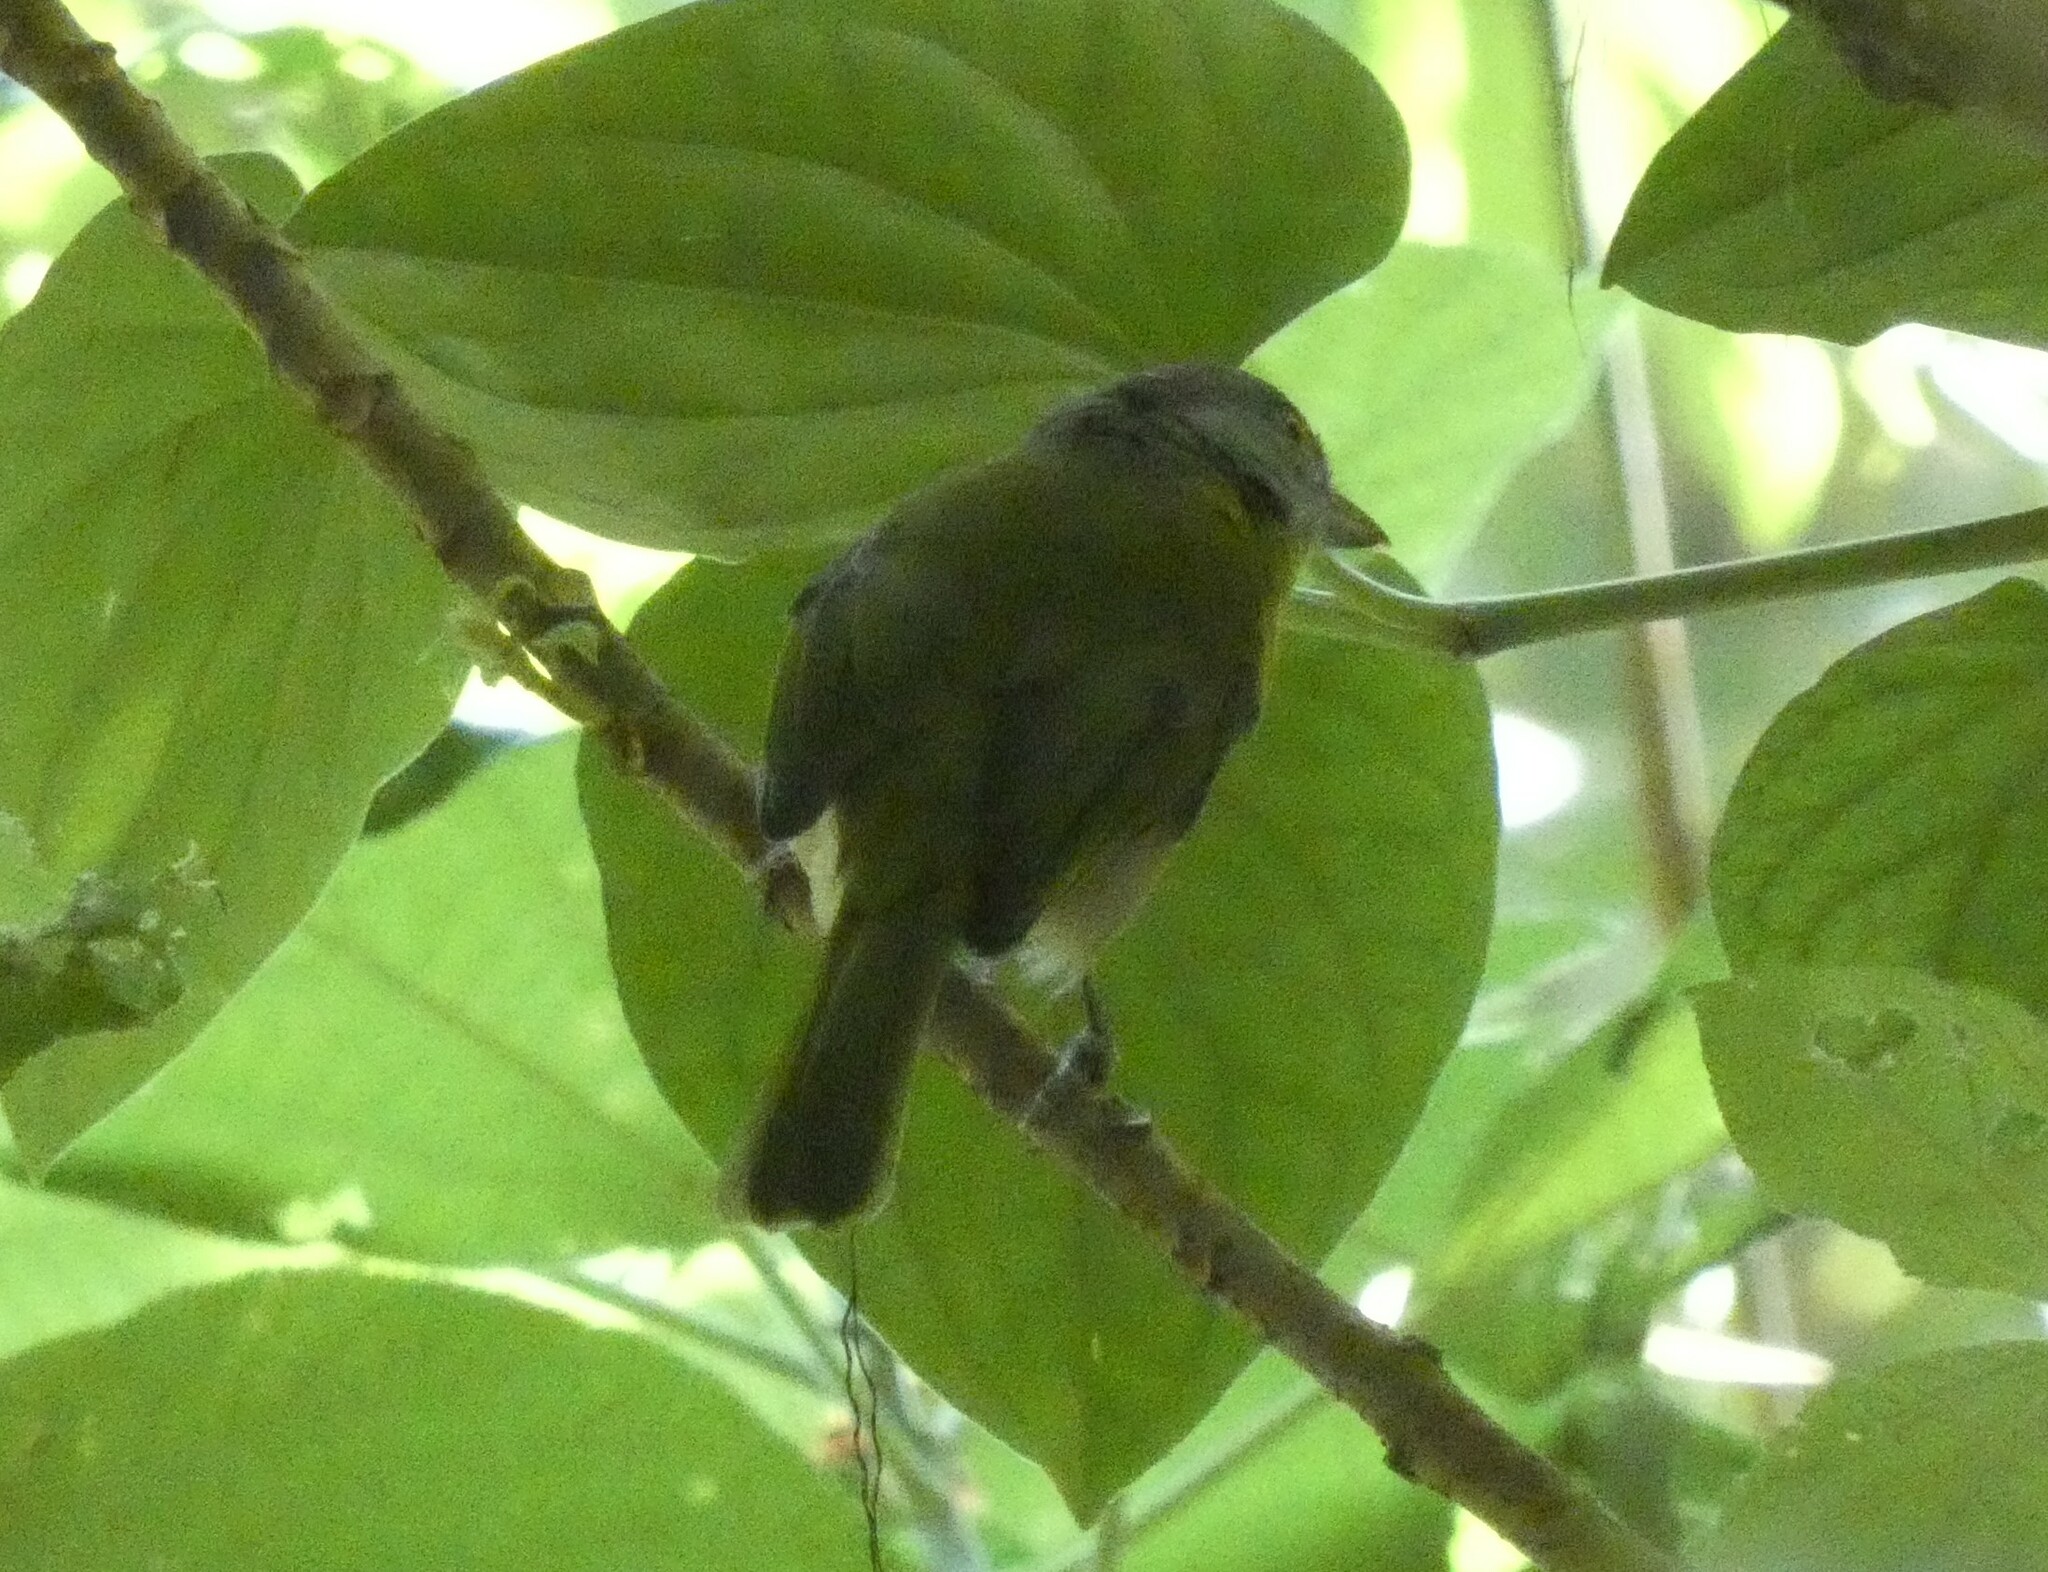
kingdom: Animalia
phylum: Chordata
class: Aves
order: Passeriformes
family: Vireonidae
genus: Cyclarhis
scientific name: Cyclarhis gujanensis
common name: Rufous-browed peppershrike
